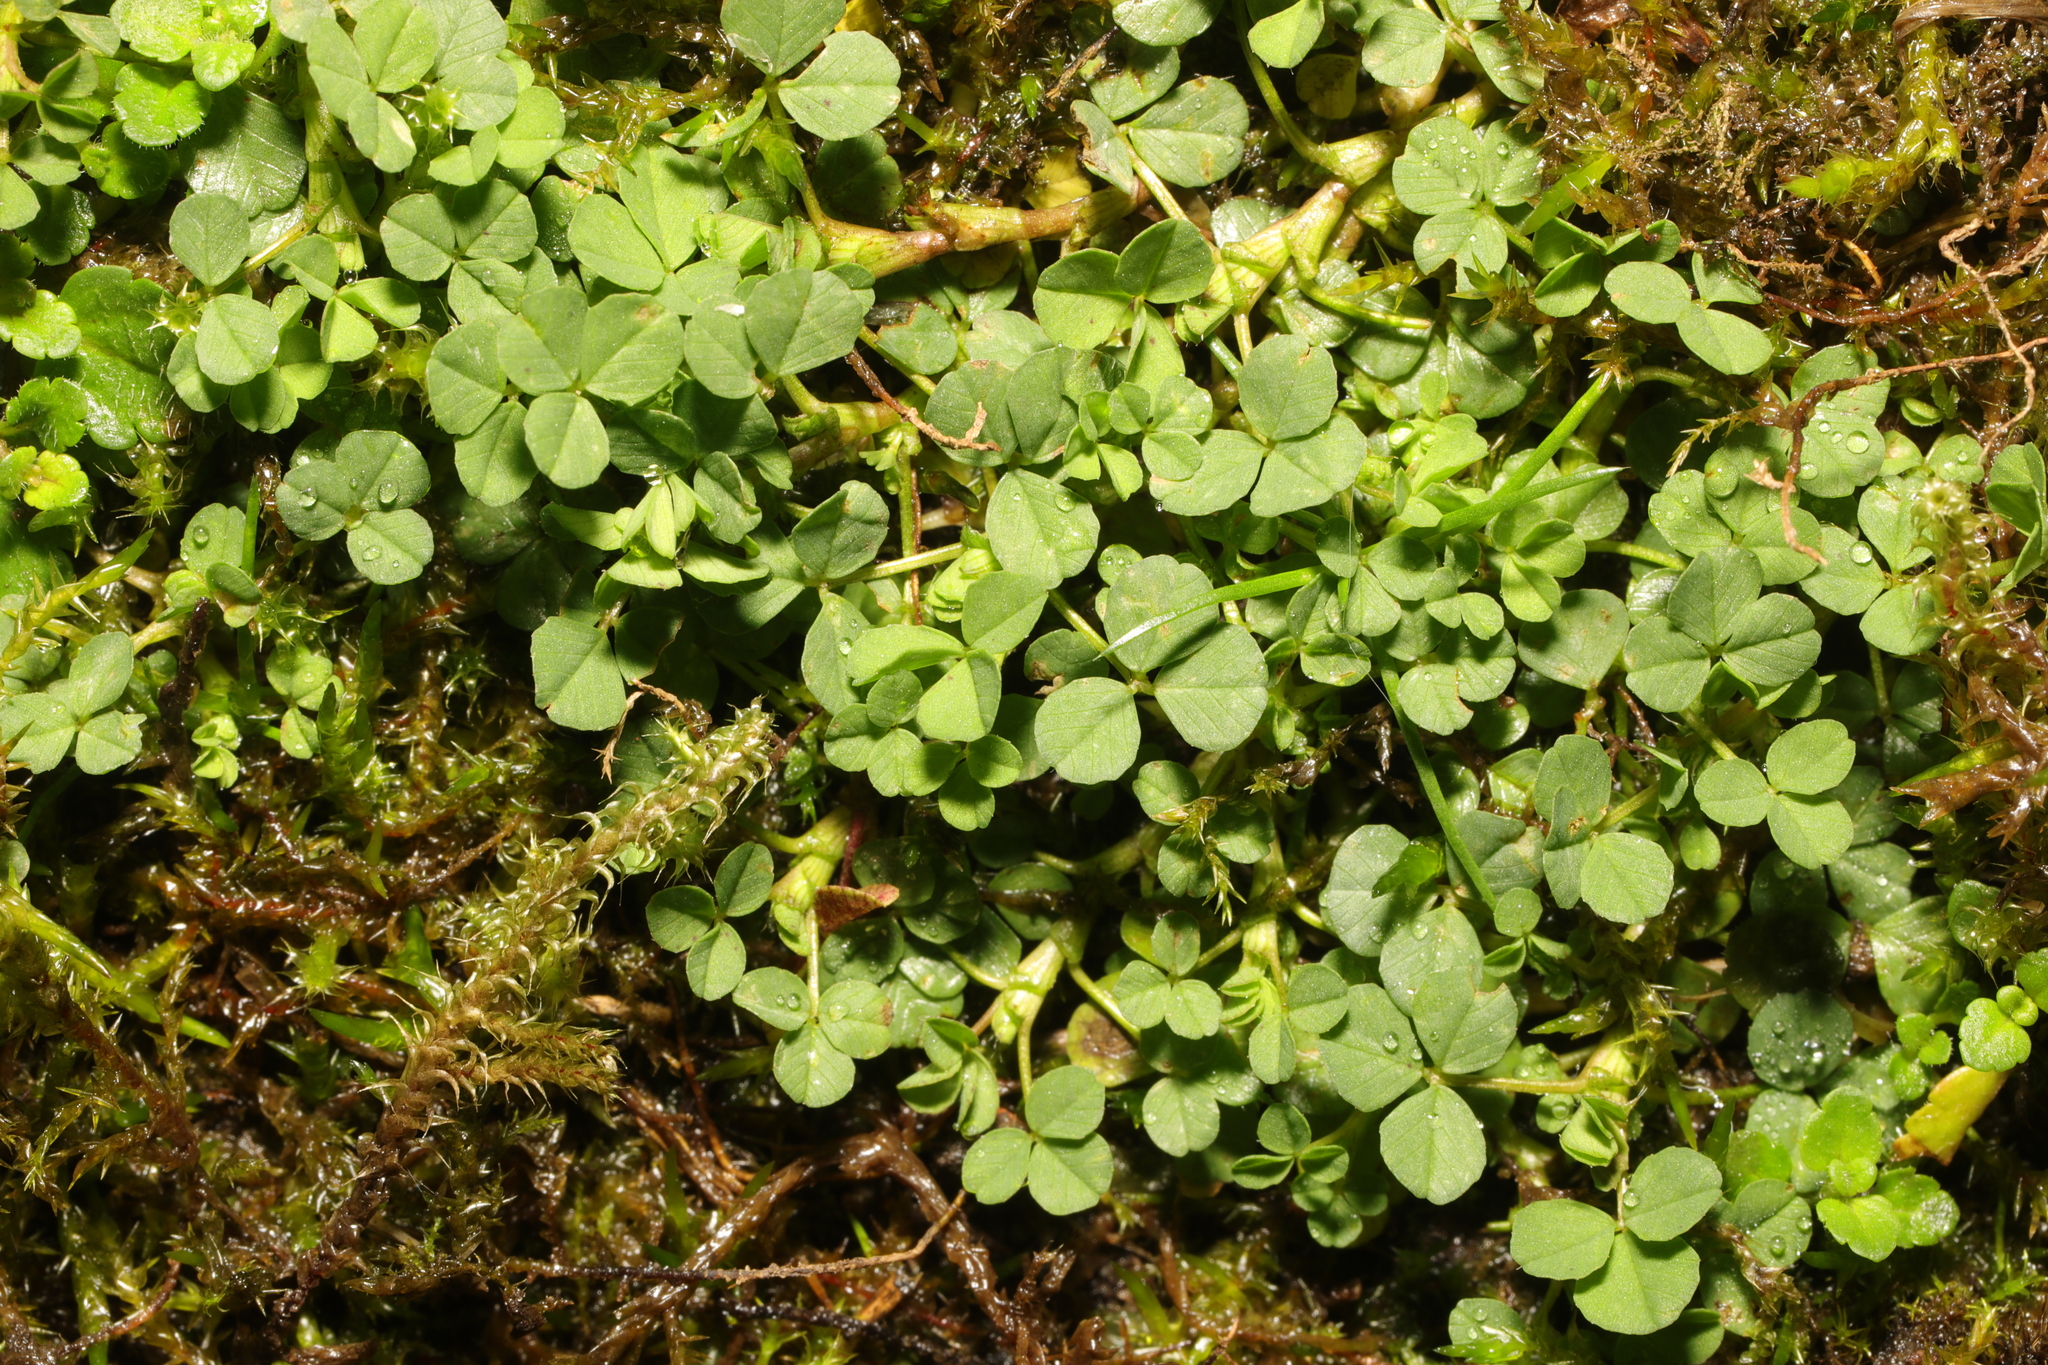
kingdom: Plantae
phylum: Tracheophyta
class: Magnoliopsida
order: Fabales
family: Fabaceae
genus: Trifolium
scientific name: Trifolium repens
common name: White clover
